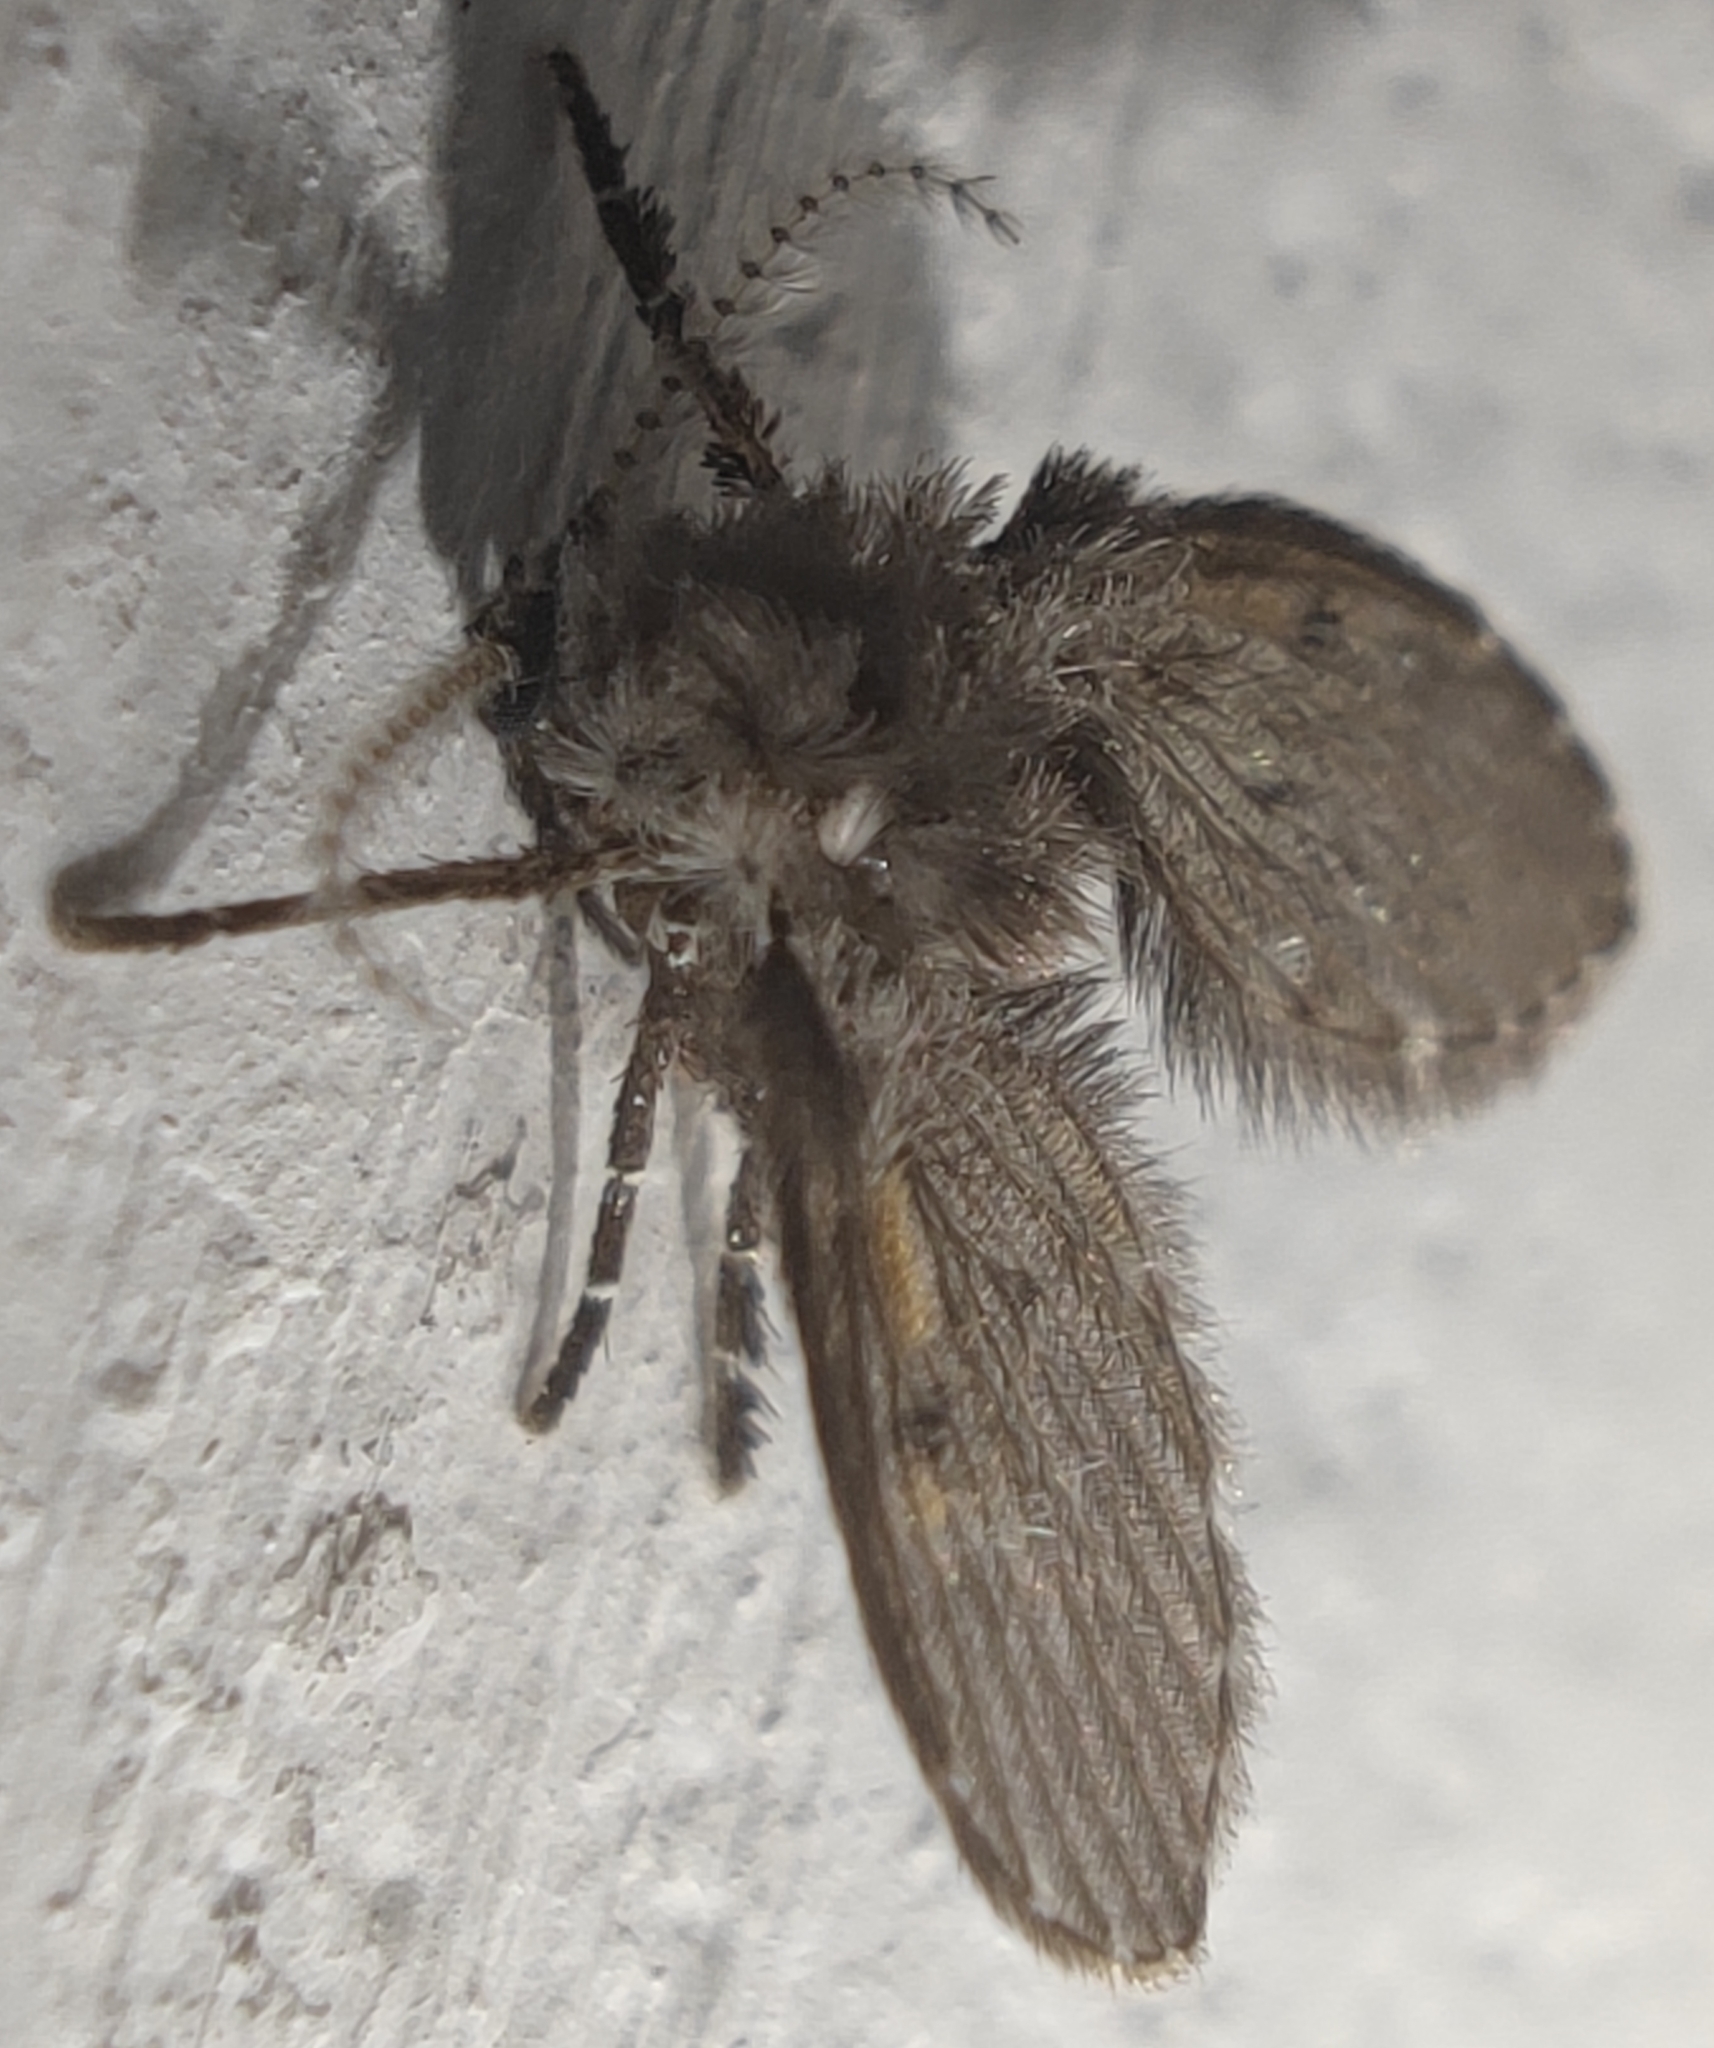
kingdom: Animalia
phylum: Arthropoda
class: Insecta
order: Diptera
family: Psychodidae
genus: Clogmia
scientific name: Clogmia albipunctatus
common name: White-spotted moth fly
